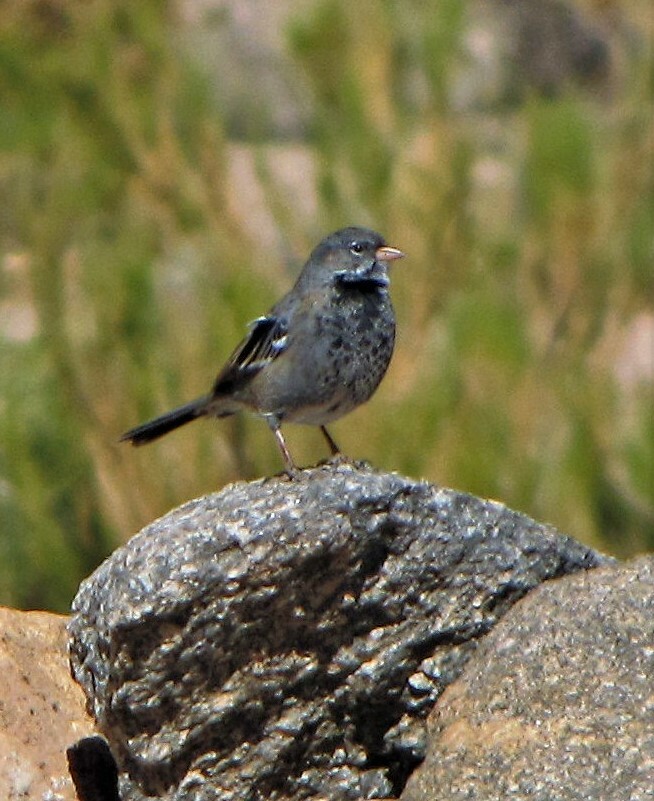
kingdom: Animalia
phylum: Chordata
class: Aves
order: Passeriformes
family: Thraupidae
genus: Rhopospina
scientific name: Rhopospina fruticeti
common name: Mourning sierra finch
